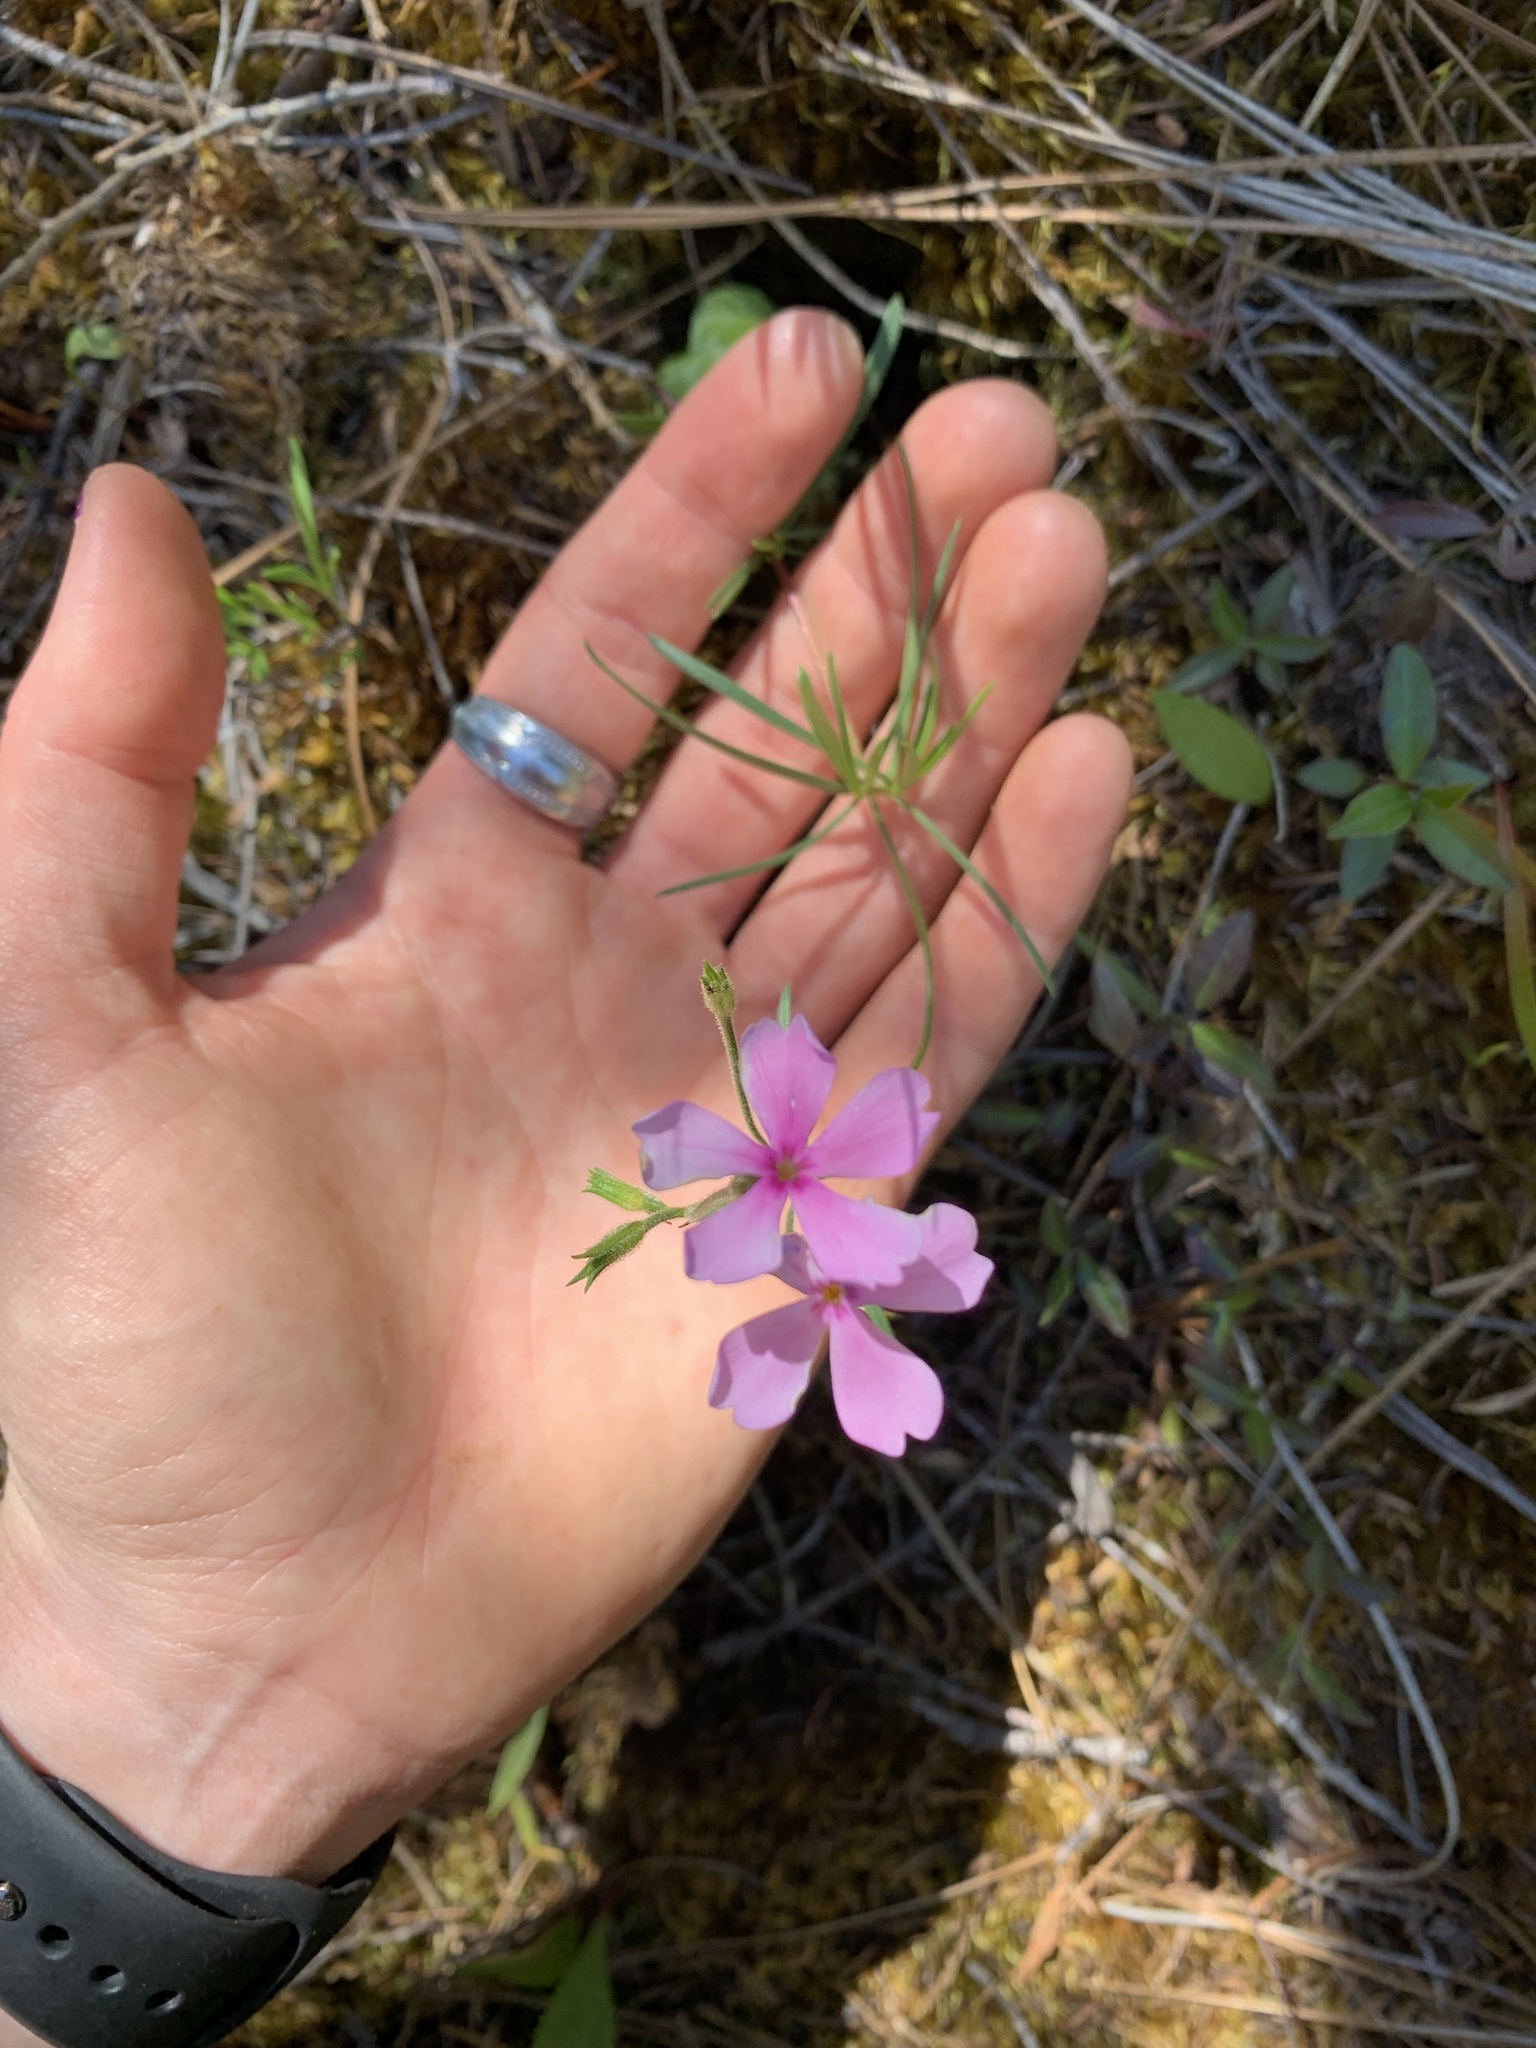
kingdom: Plantae
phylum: Tracheophyta
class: Magnoliopsida
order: Ericales
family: Polemoniaceae
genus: Phlox
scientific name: Phlox speciosa
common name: Bush phlox
